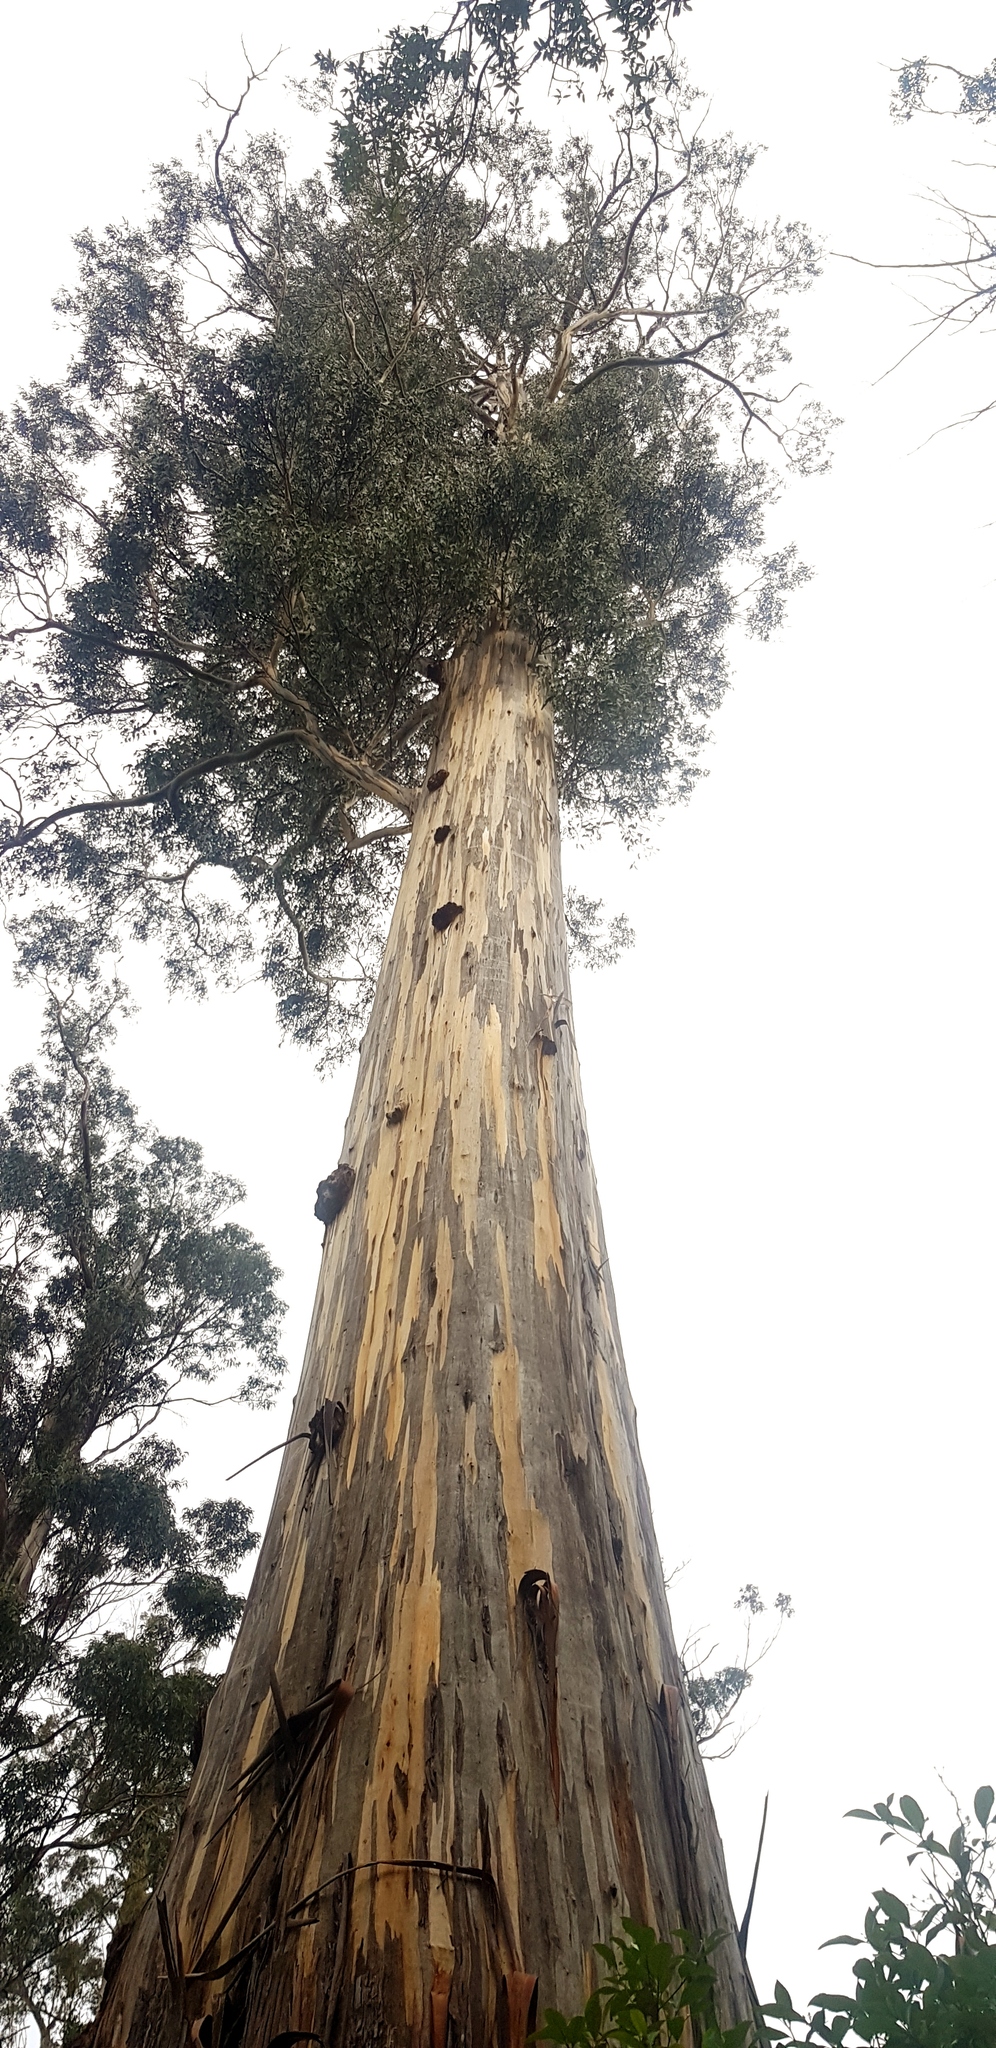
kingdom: Plantae
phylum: Tracheophyta
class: Magnoliopsida
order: Myrtales
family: Myrtaceae
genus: Eucalyptus
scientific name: Eucalyptus globulus
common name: Southern blue-gum
